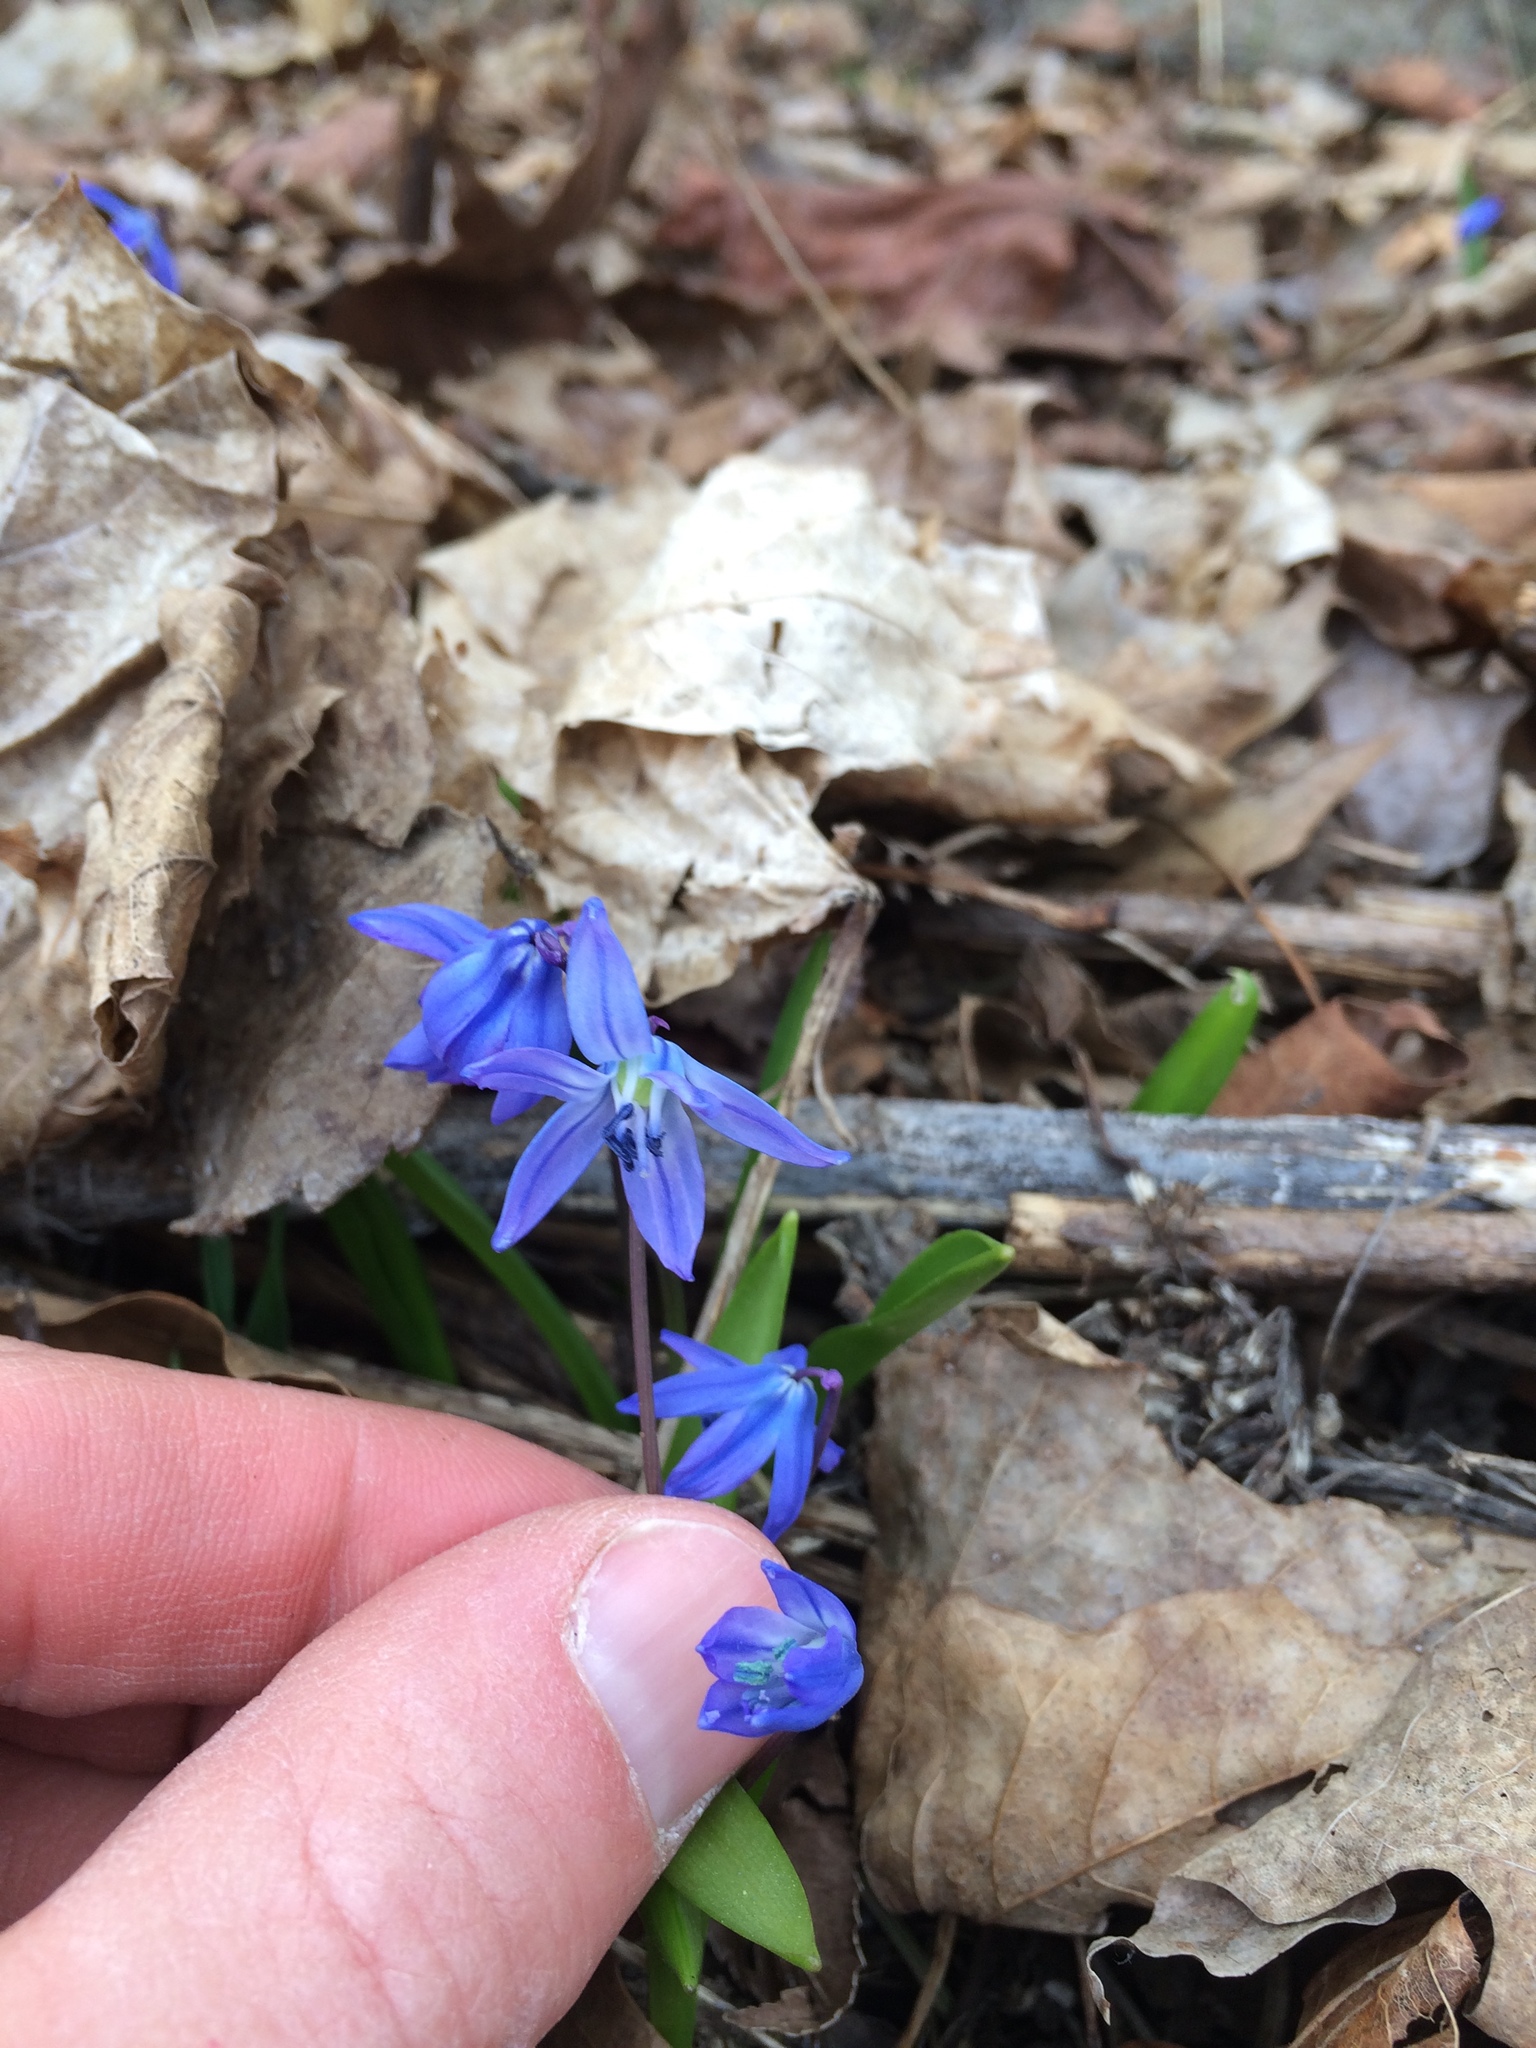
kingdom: Plantae
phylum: Tracheophyta
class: Liliopsida
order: Asparagales
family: Asparagaceae
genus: Scilla
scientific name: Scilla siberica
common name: Siberian squill
